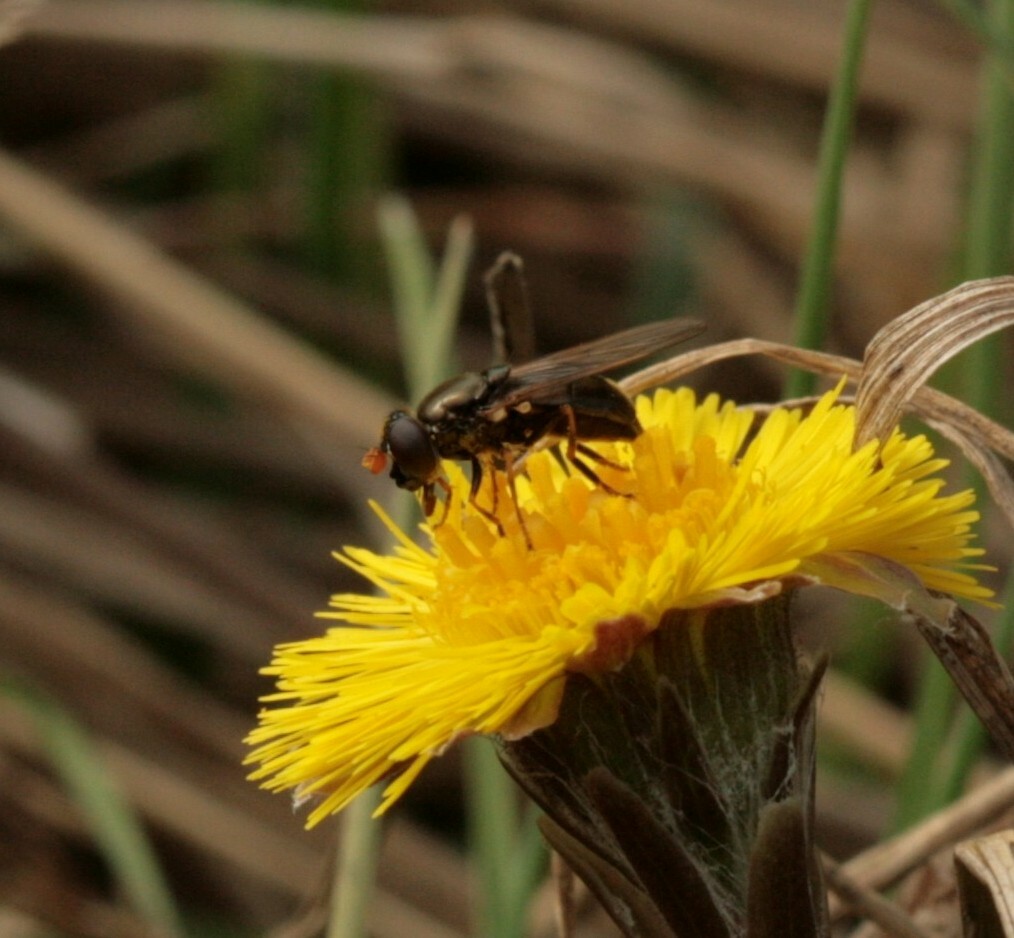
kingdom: Animalia
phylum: Arthropoda
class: Insecta
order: Diptera
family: Syrphidae
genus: Cheilosia
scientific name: Cheilosia pagana
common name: Hover fly
